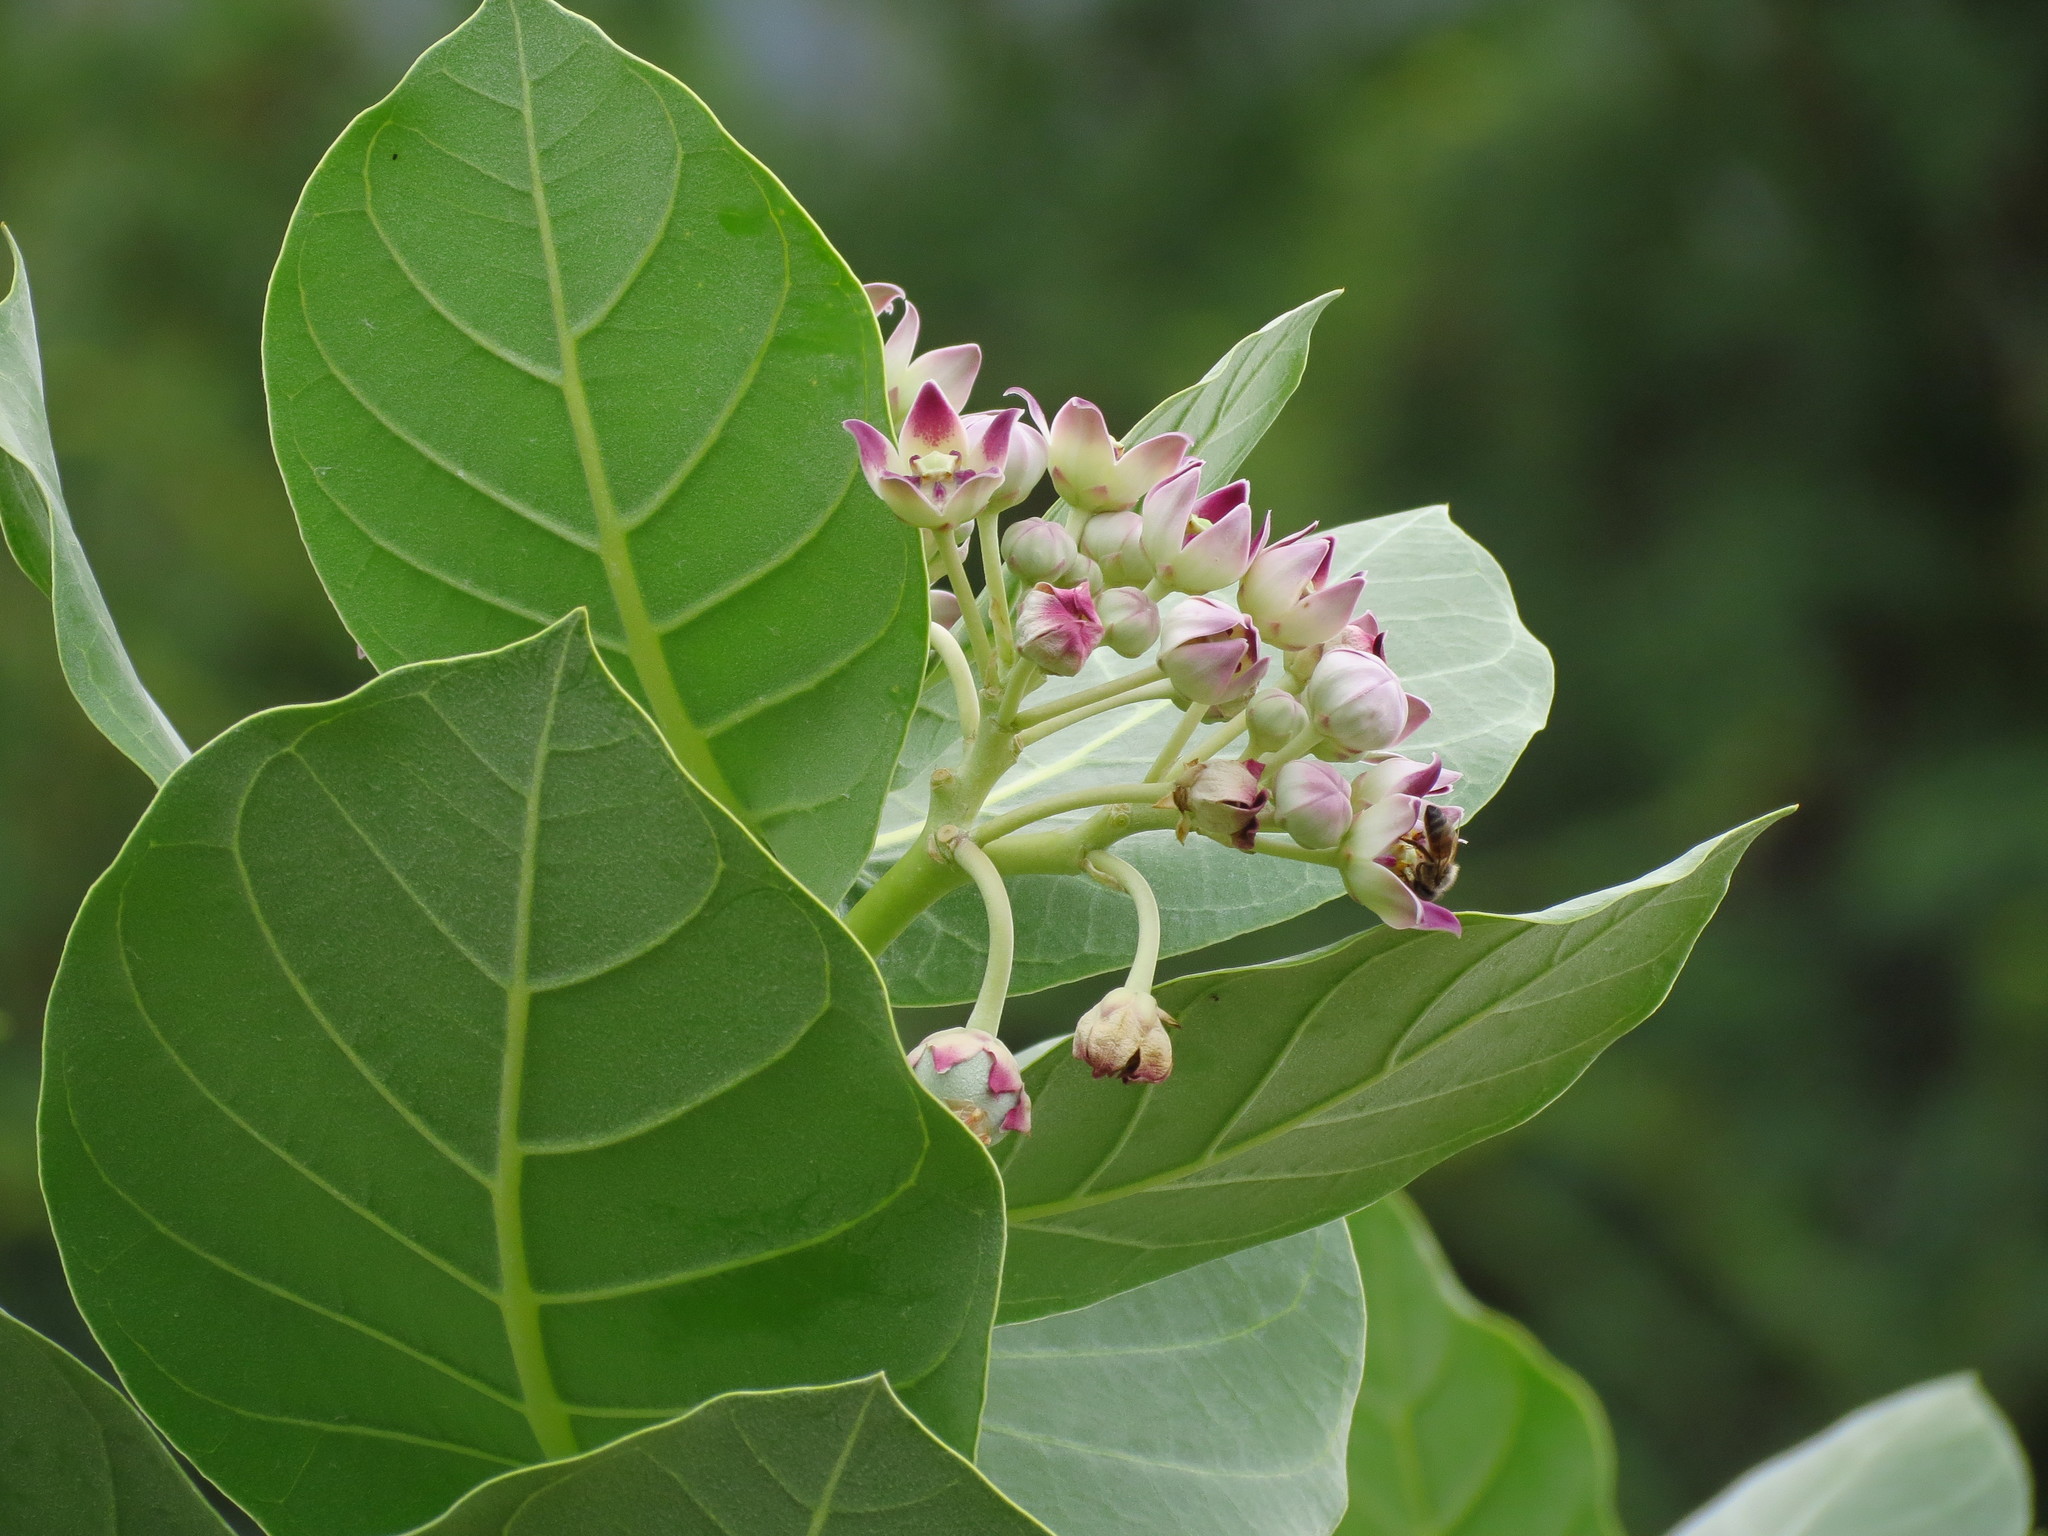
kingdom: Plantae
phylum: Tracheophyta
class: Magnoliopsida
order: Gentianales
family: Apocynaceae
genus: Calotropis
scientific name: Calotropis procera
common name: Roostertree
